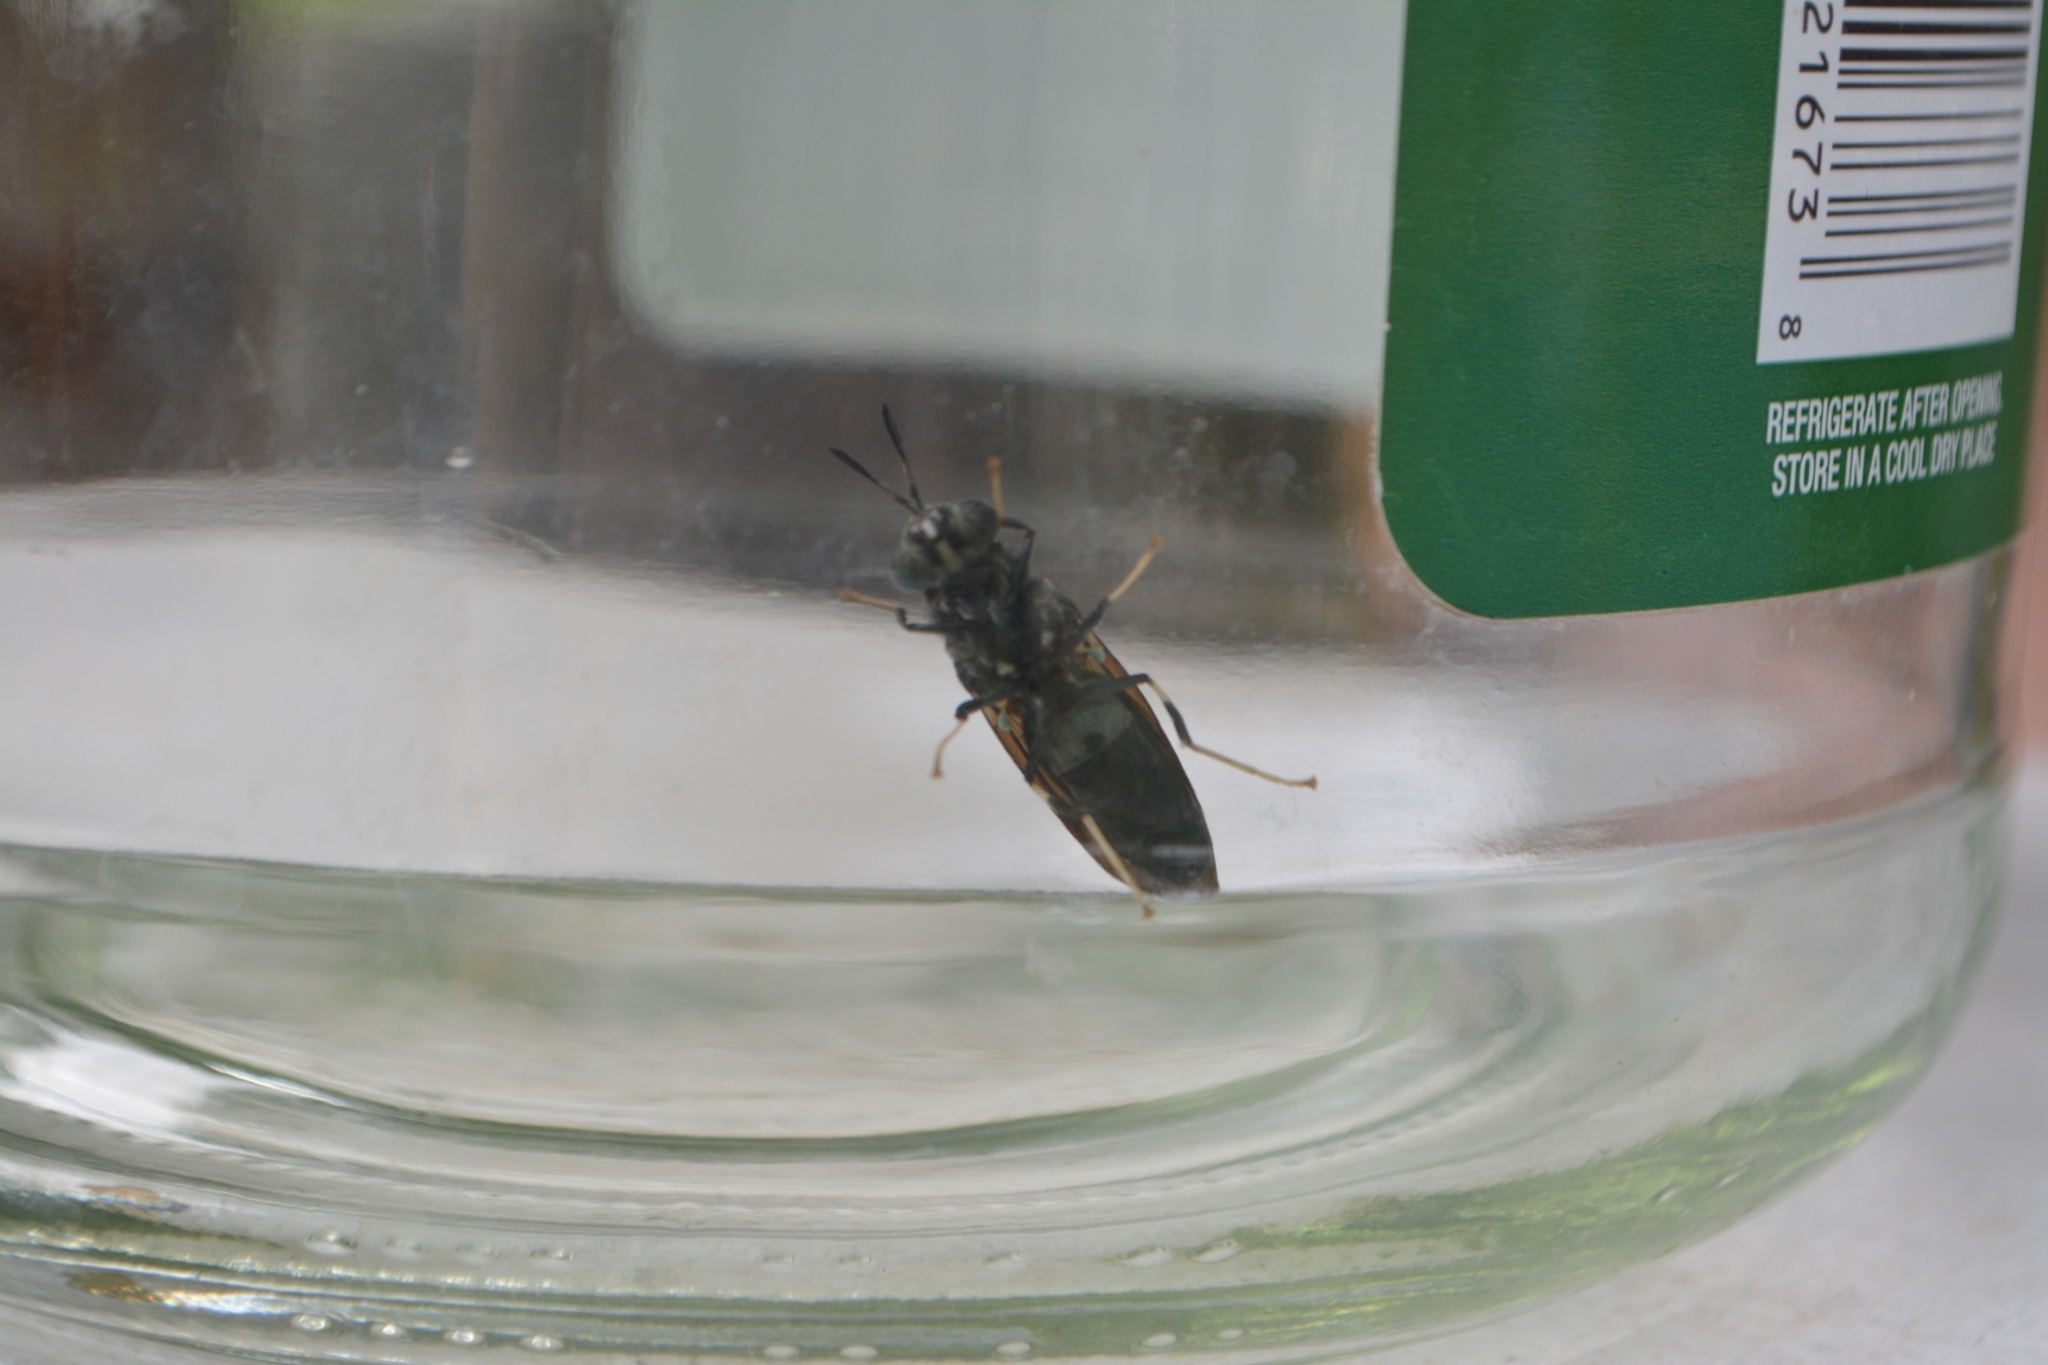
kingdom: Animalia
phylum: Arthropoda
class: Insecta
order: Diptera
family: Stratiomyidae
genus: Hermetia
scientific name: Hermetia illucens
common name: Black soldier fly
